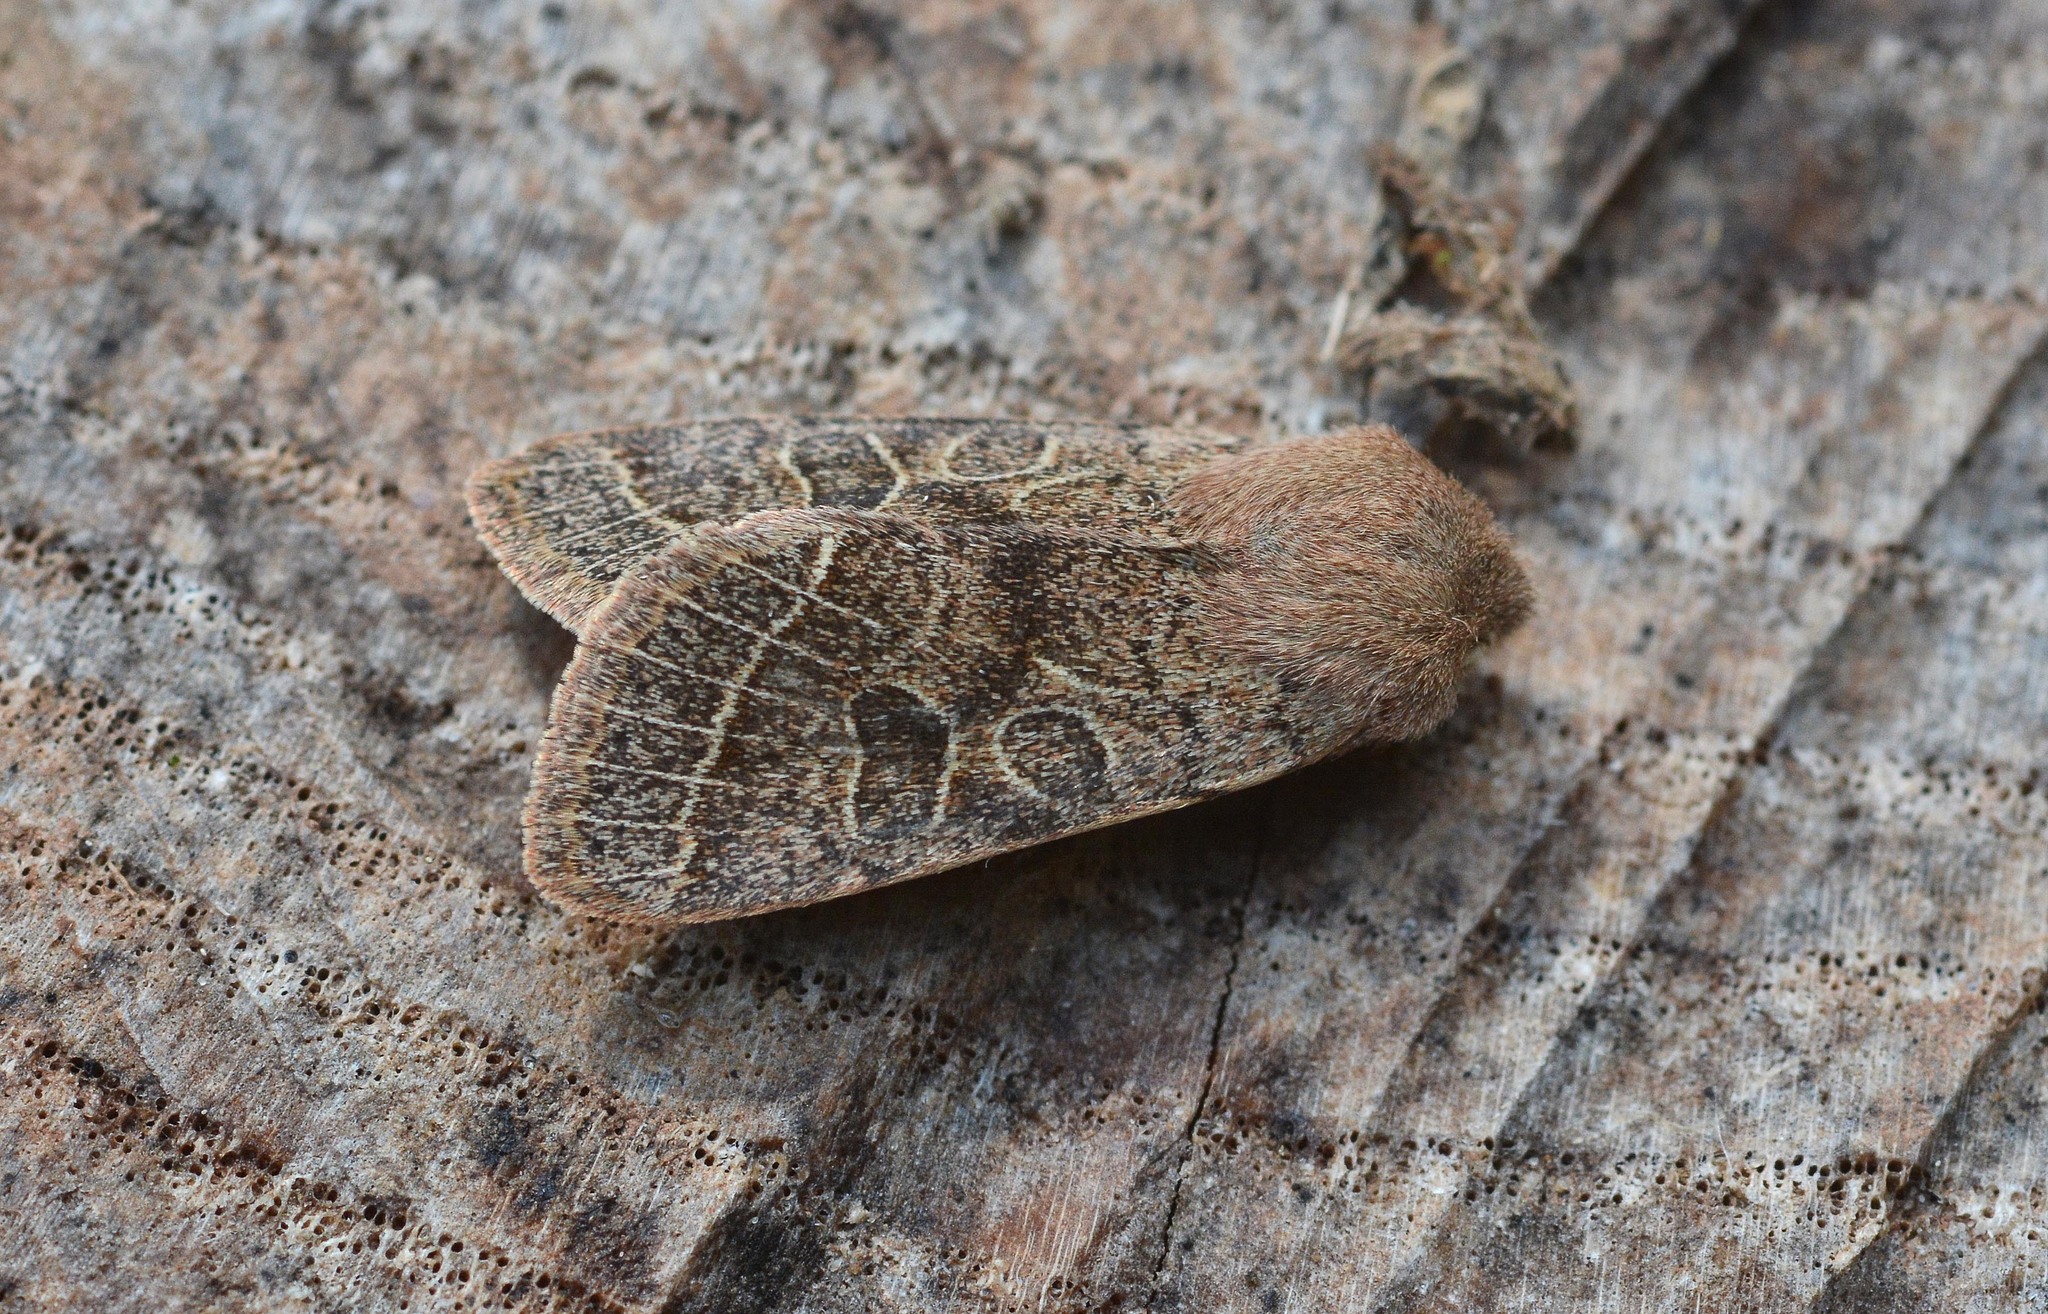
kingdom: Animalia
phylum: Arthropoda
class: Insecta
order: Lepidoptera
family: Noctuidae
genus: Orthosia
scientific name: Orthosia cerasi
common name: Common quaker
